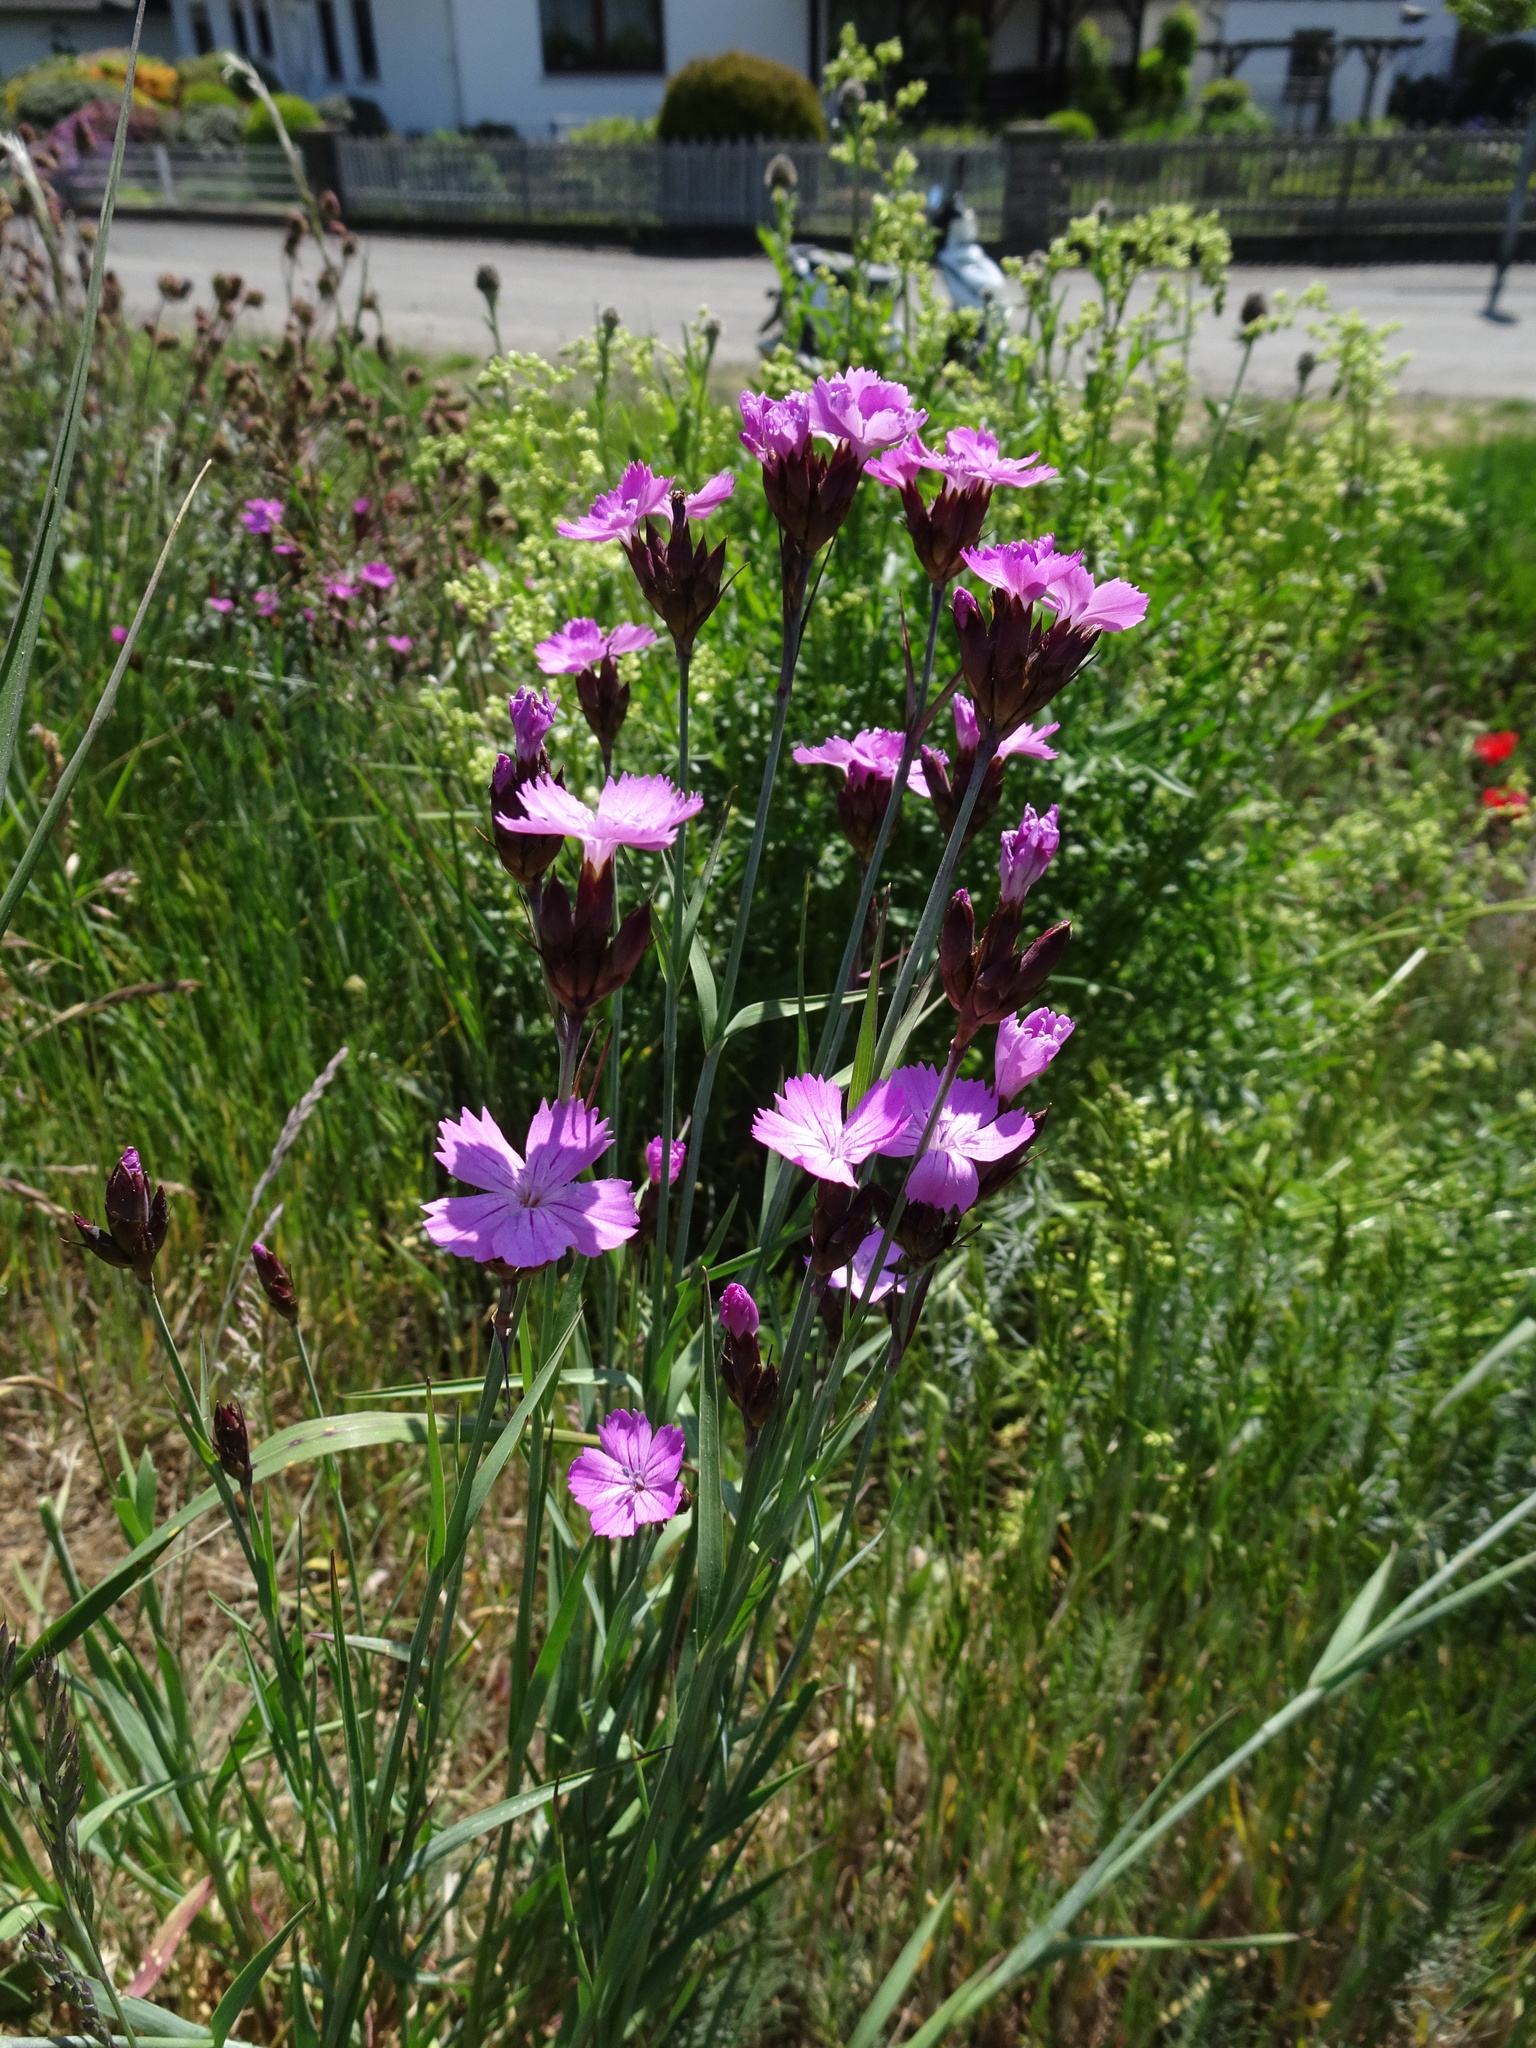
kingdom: Plantae
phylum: Tracheophyta
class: Magnoliopsida
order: Caryophyllales
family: Caryophyllaceae
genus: Dianthus
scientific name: Dianthus carthusianorum
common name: Carthusian pink
